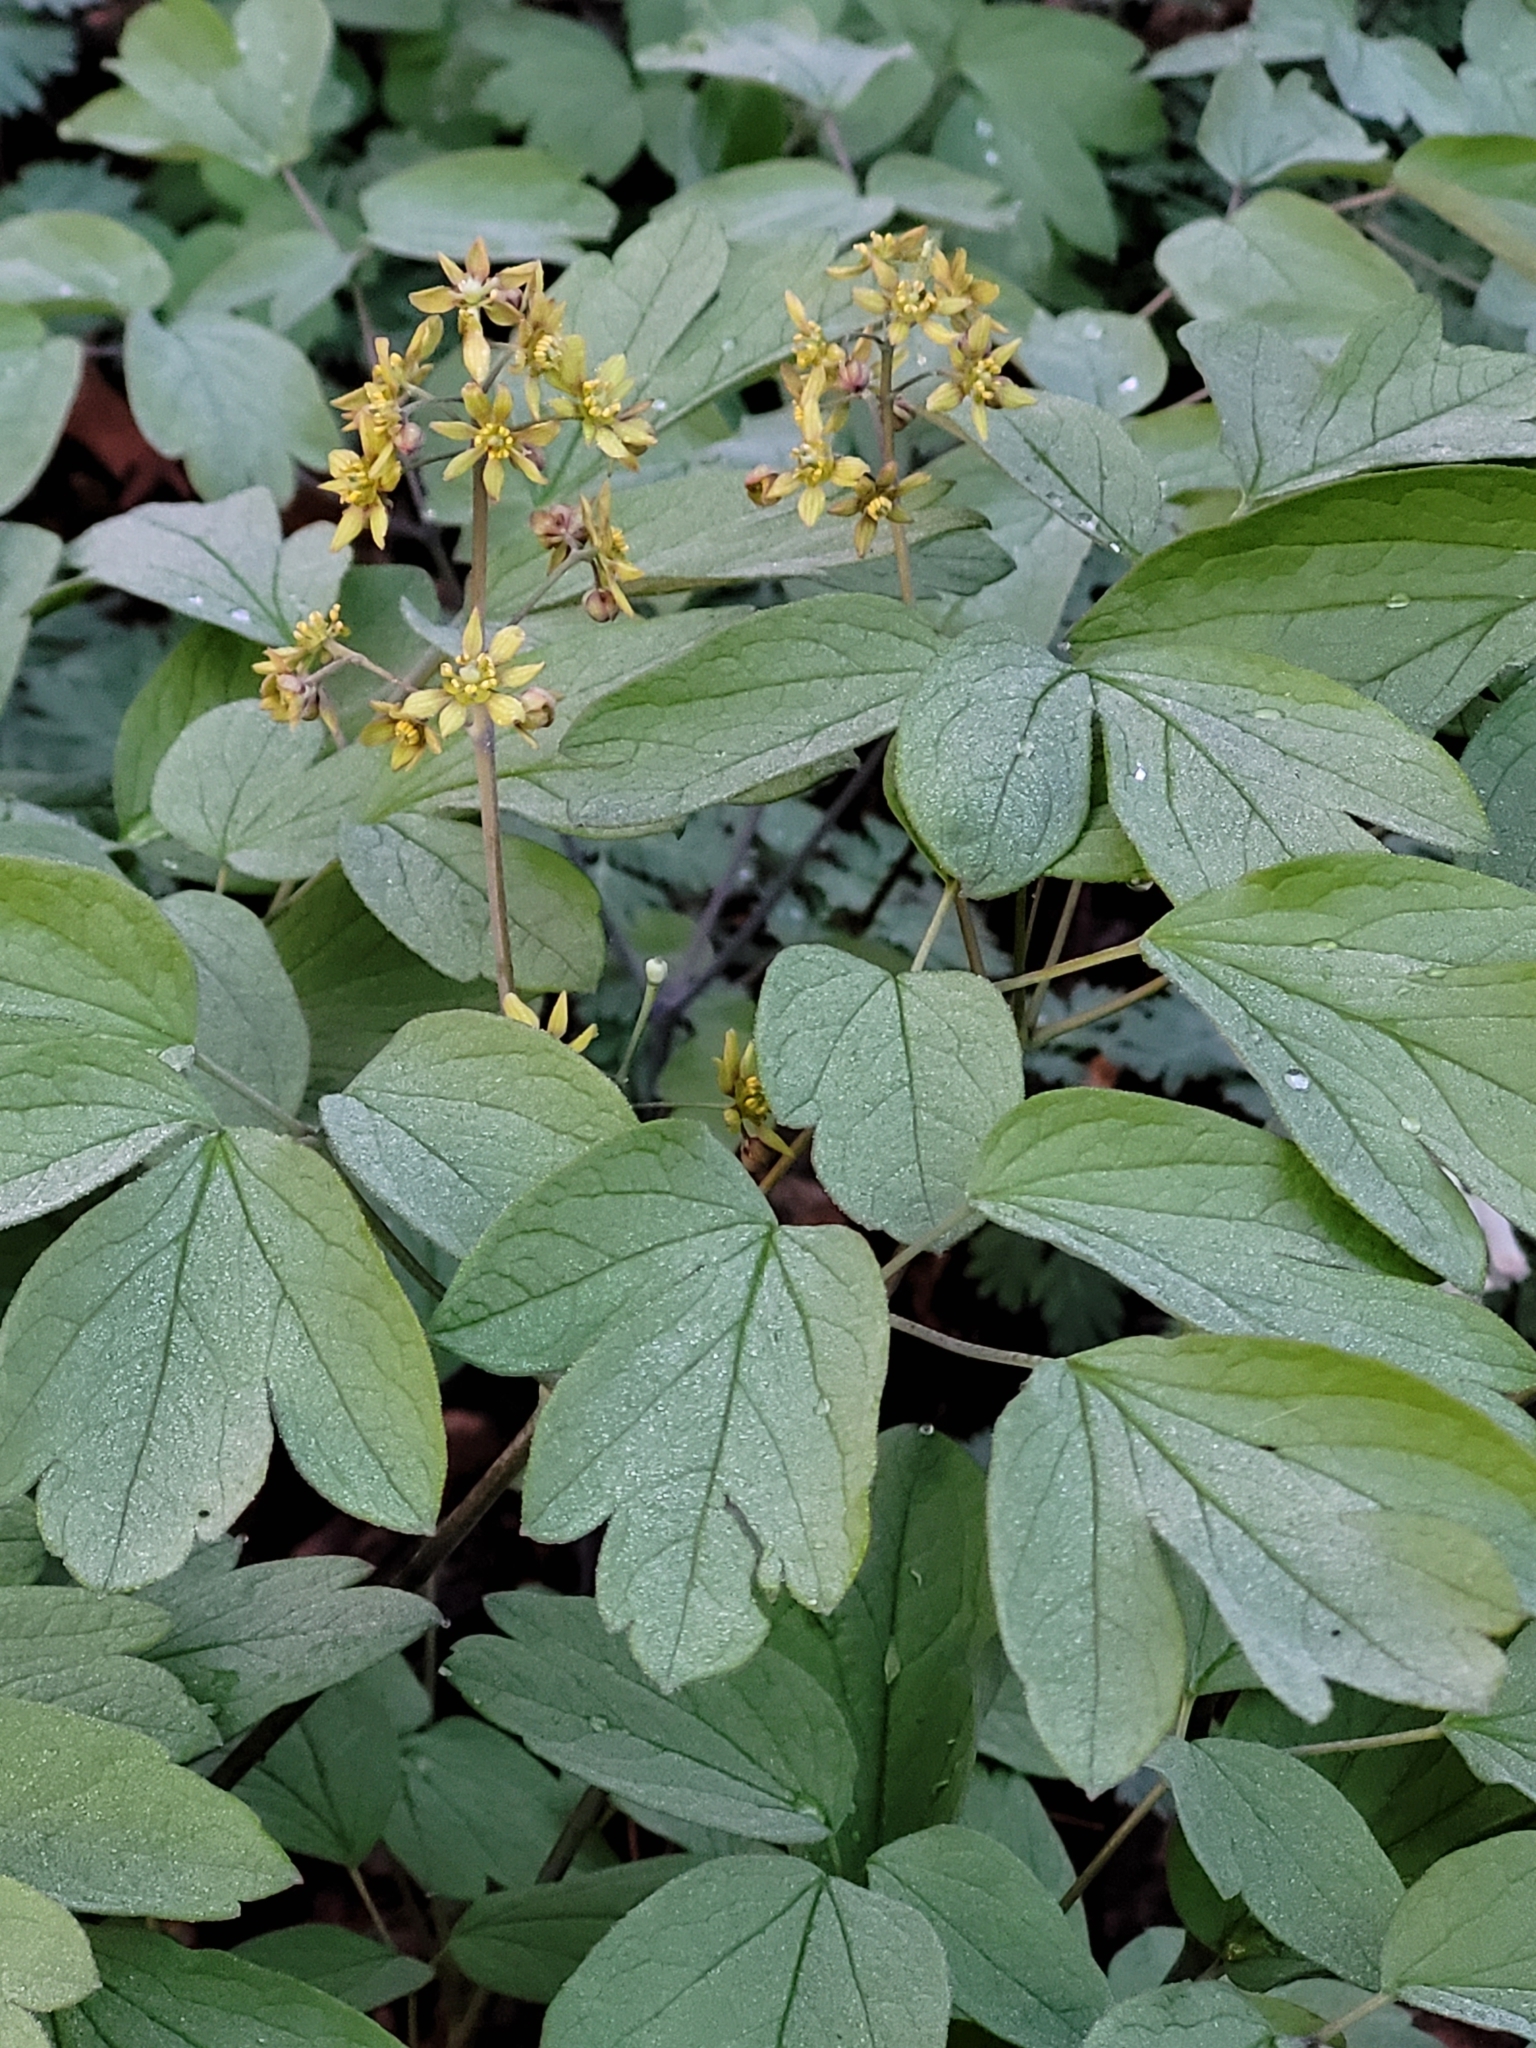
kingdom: Plantae
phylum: Tracheophyta
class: Magnoliopsida
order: Ranunculales
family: Berberidaceae
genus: Caulophyllum
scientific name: Caulophyllum thalictroides
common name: Blue cohosh
